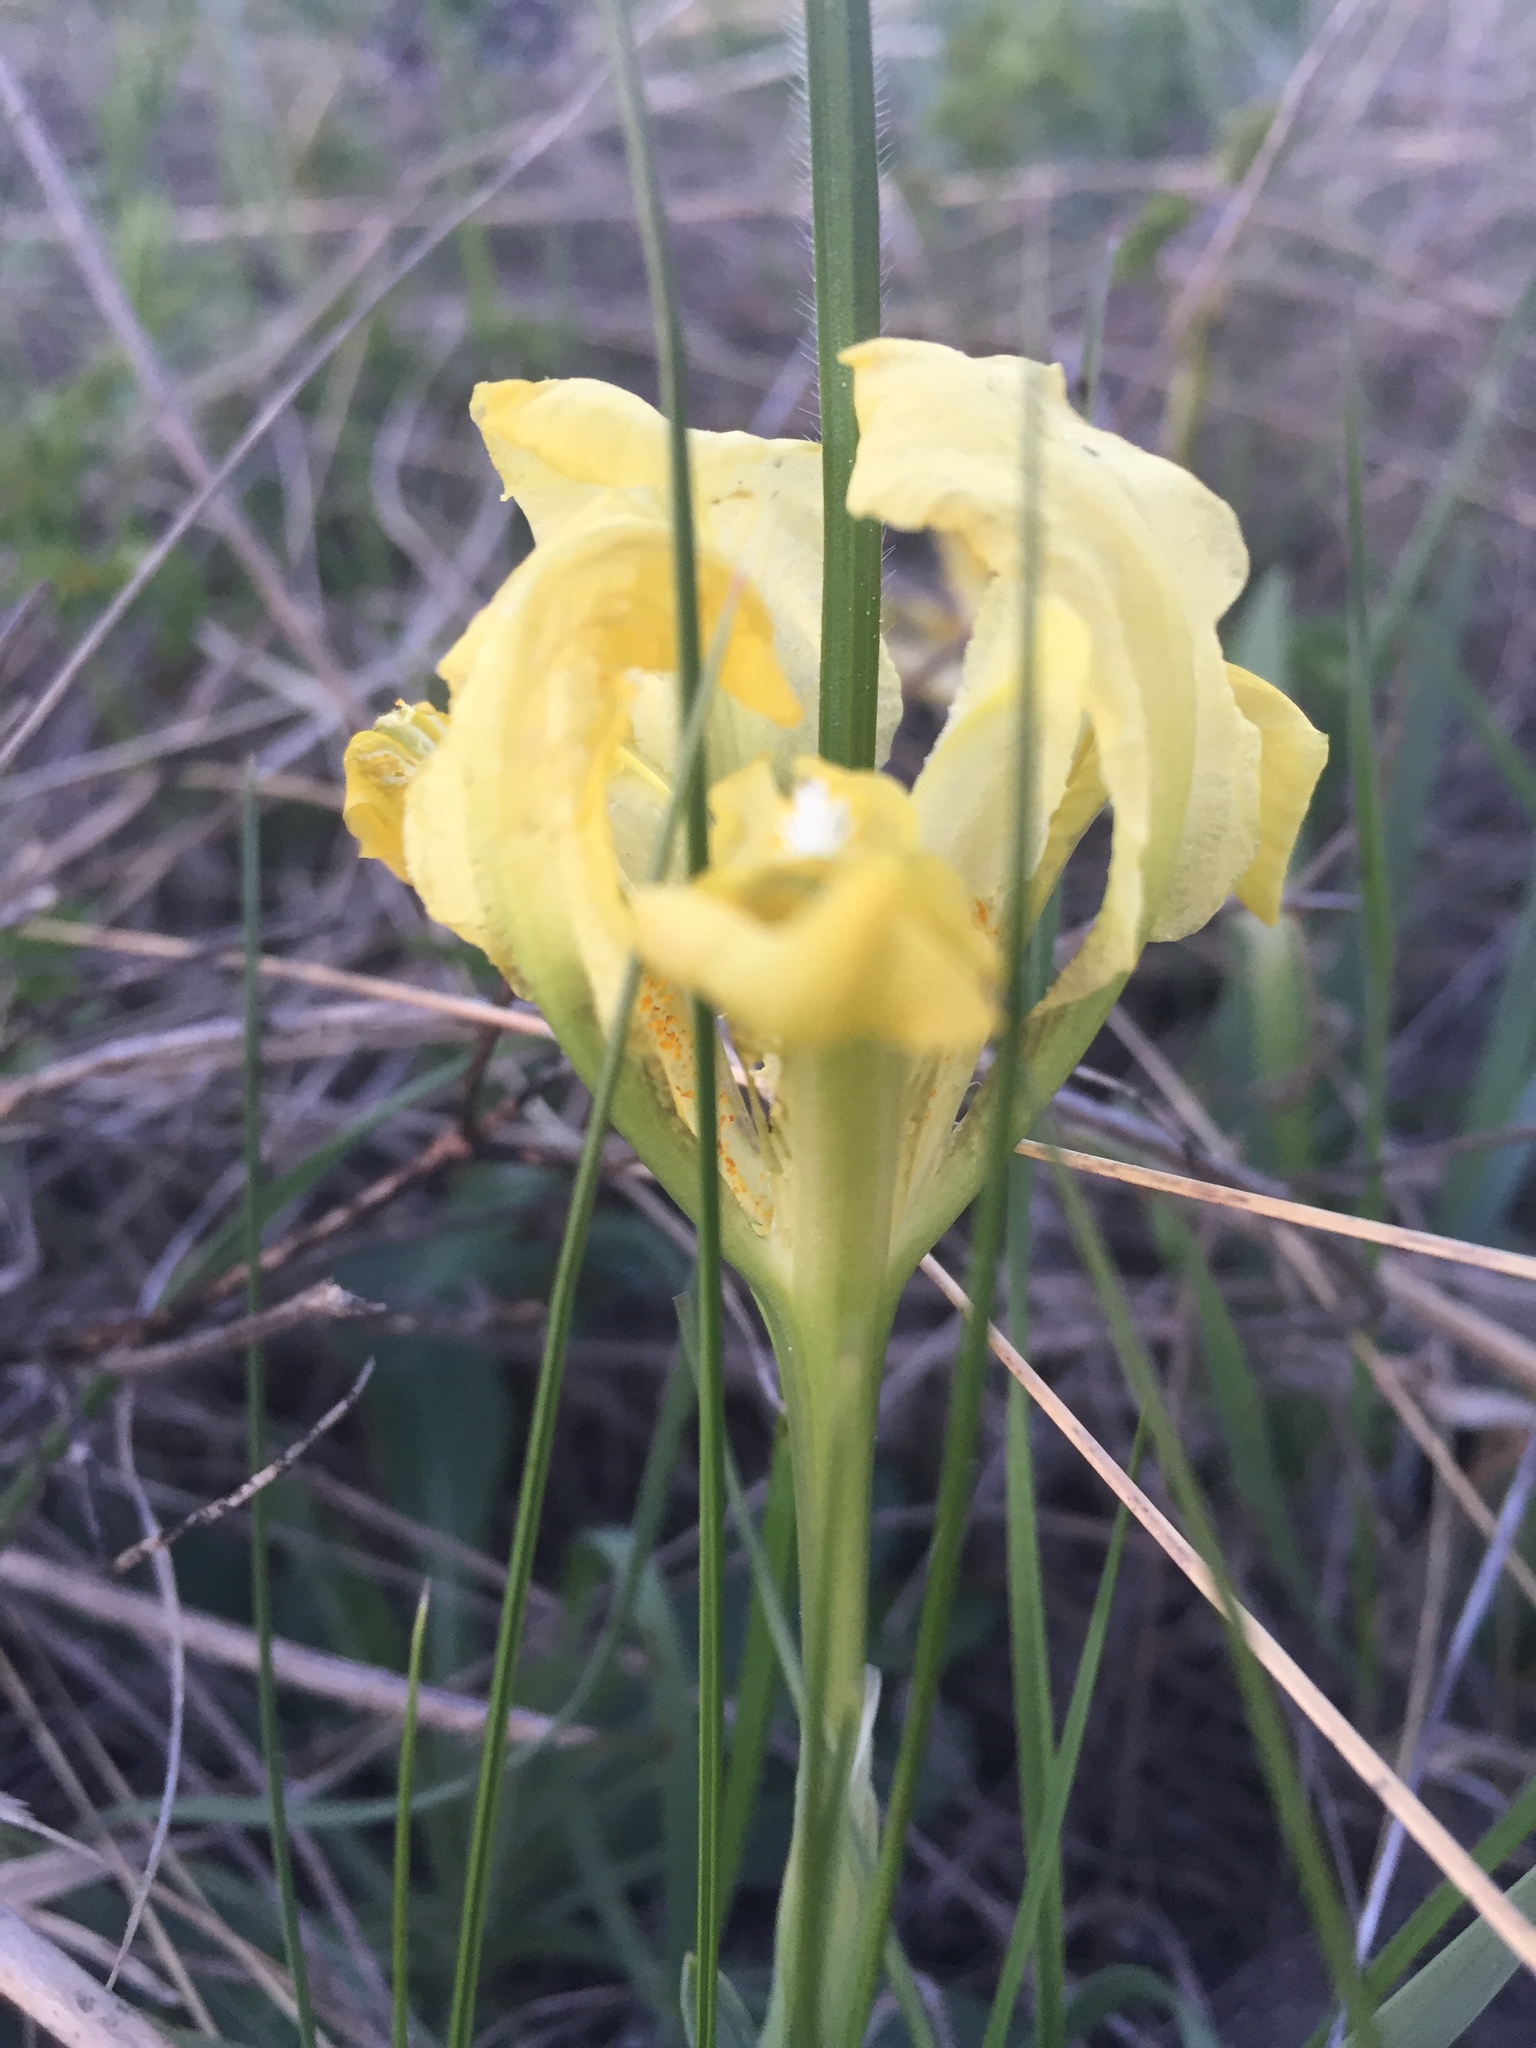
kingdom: Plantae
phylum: Tracheophyta
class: Liliopsida
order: Asparagales
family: Iridaceae
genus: Iris
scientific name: Iris pumila
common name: Dwarf iris
